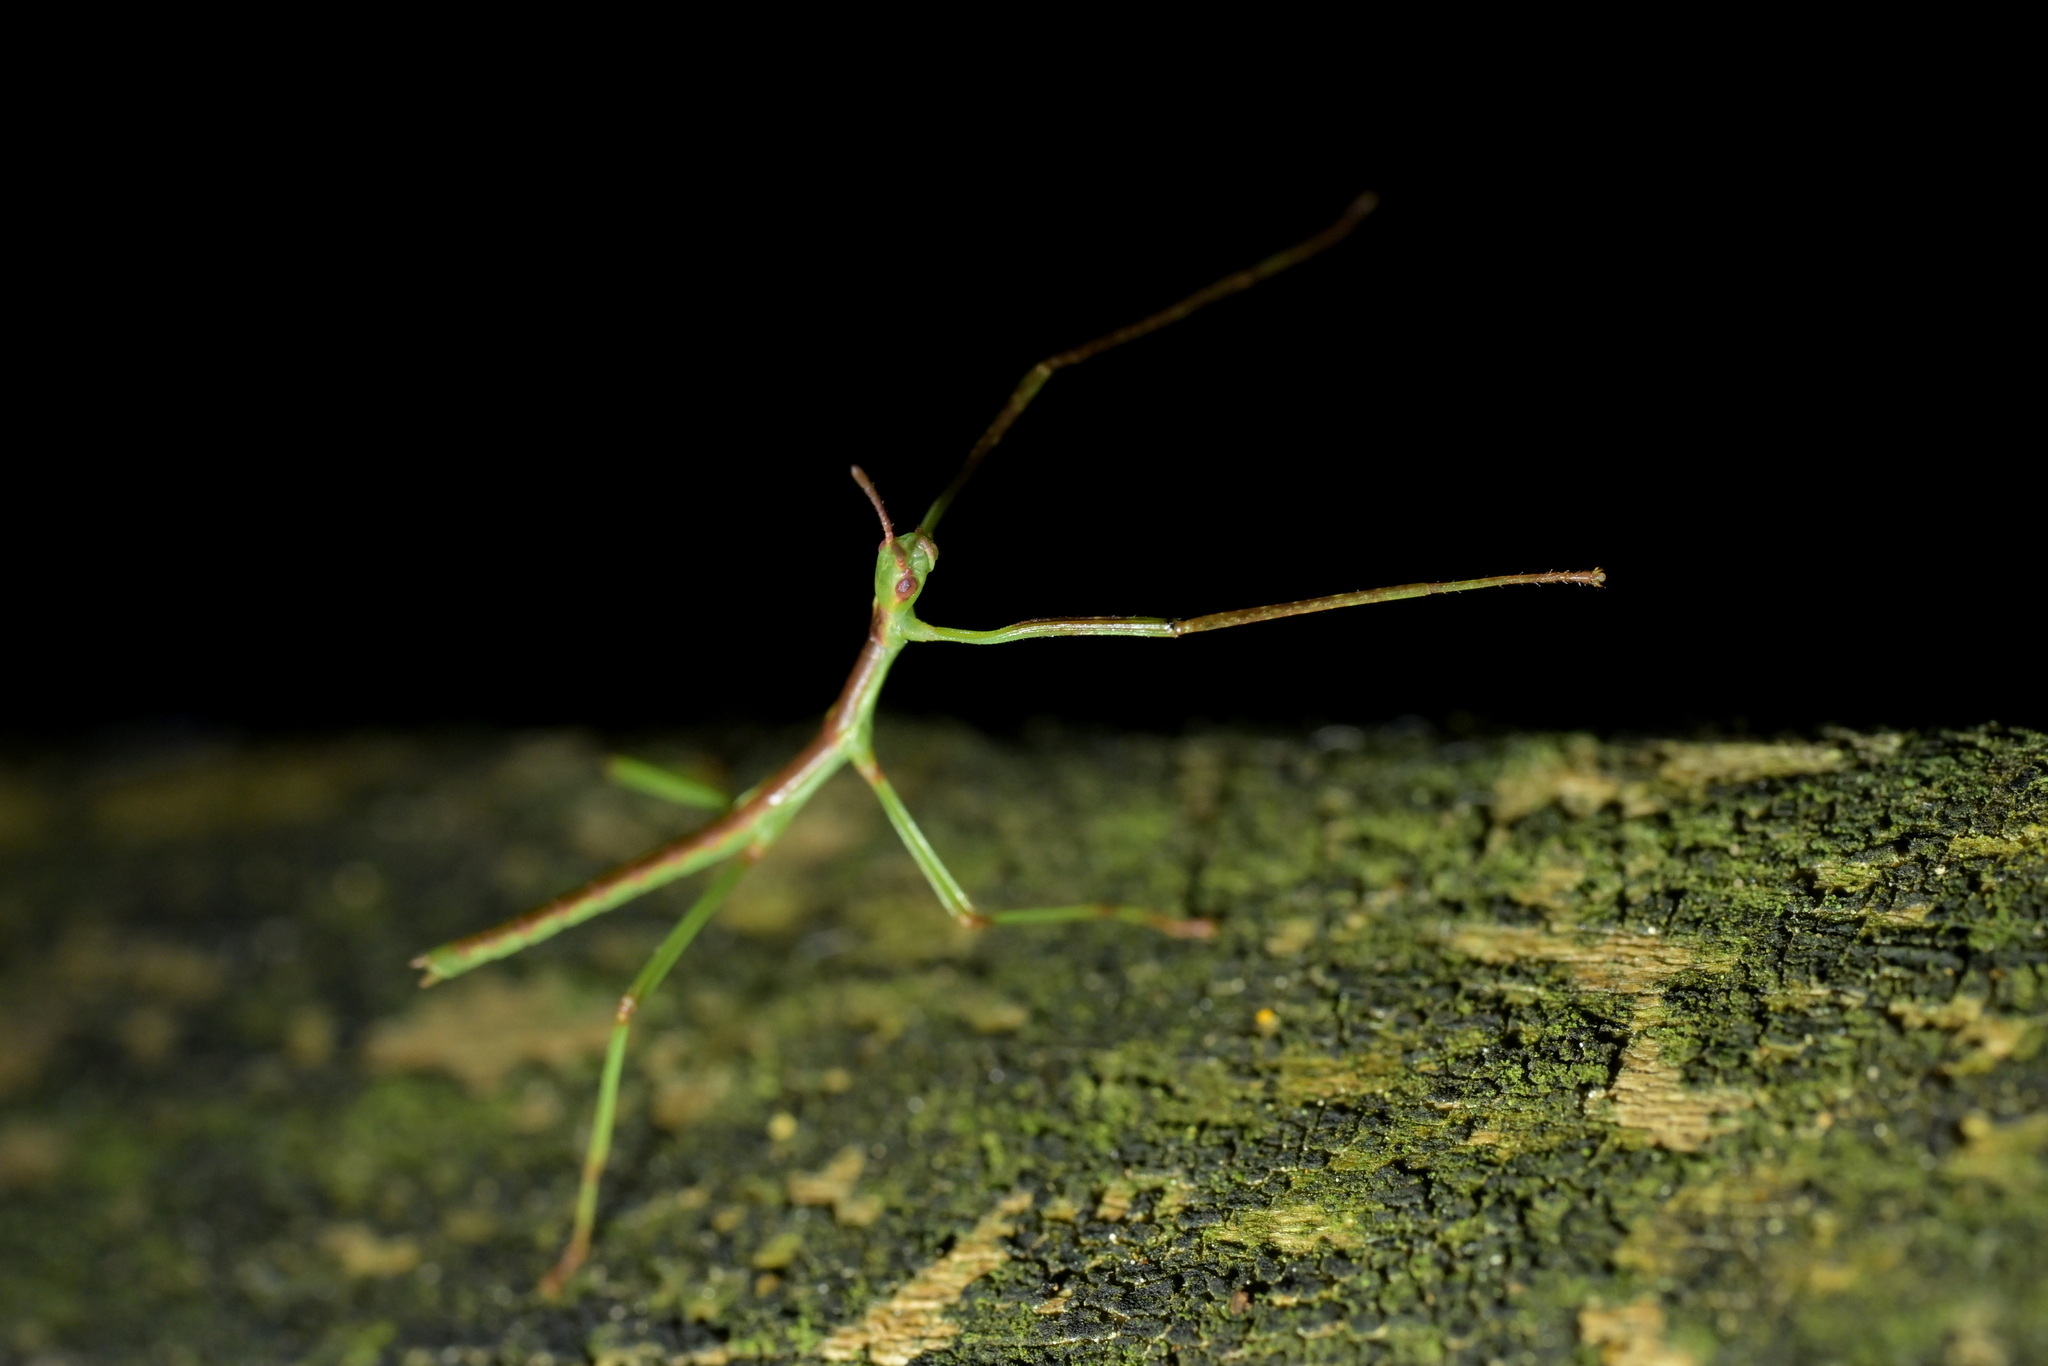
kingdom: Animalia
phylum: Arthropoda
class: Insecta
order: Phasmida
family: Phasmatidae
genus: Clitarchus
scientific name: Clitarchus hookeri
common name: Smooth stick insect
